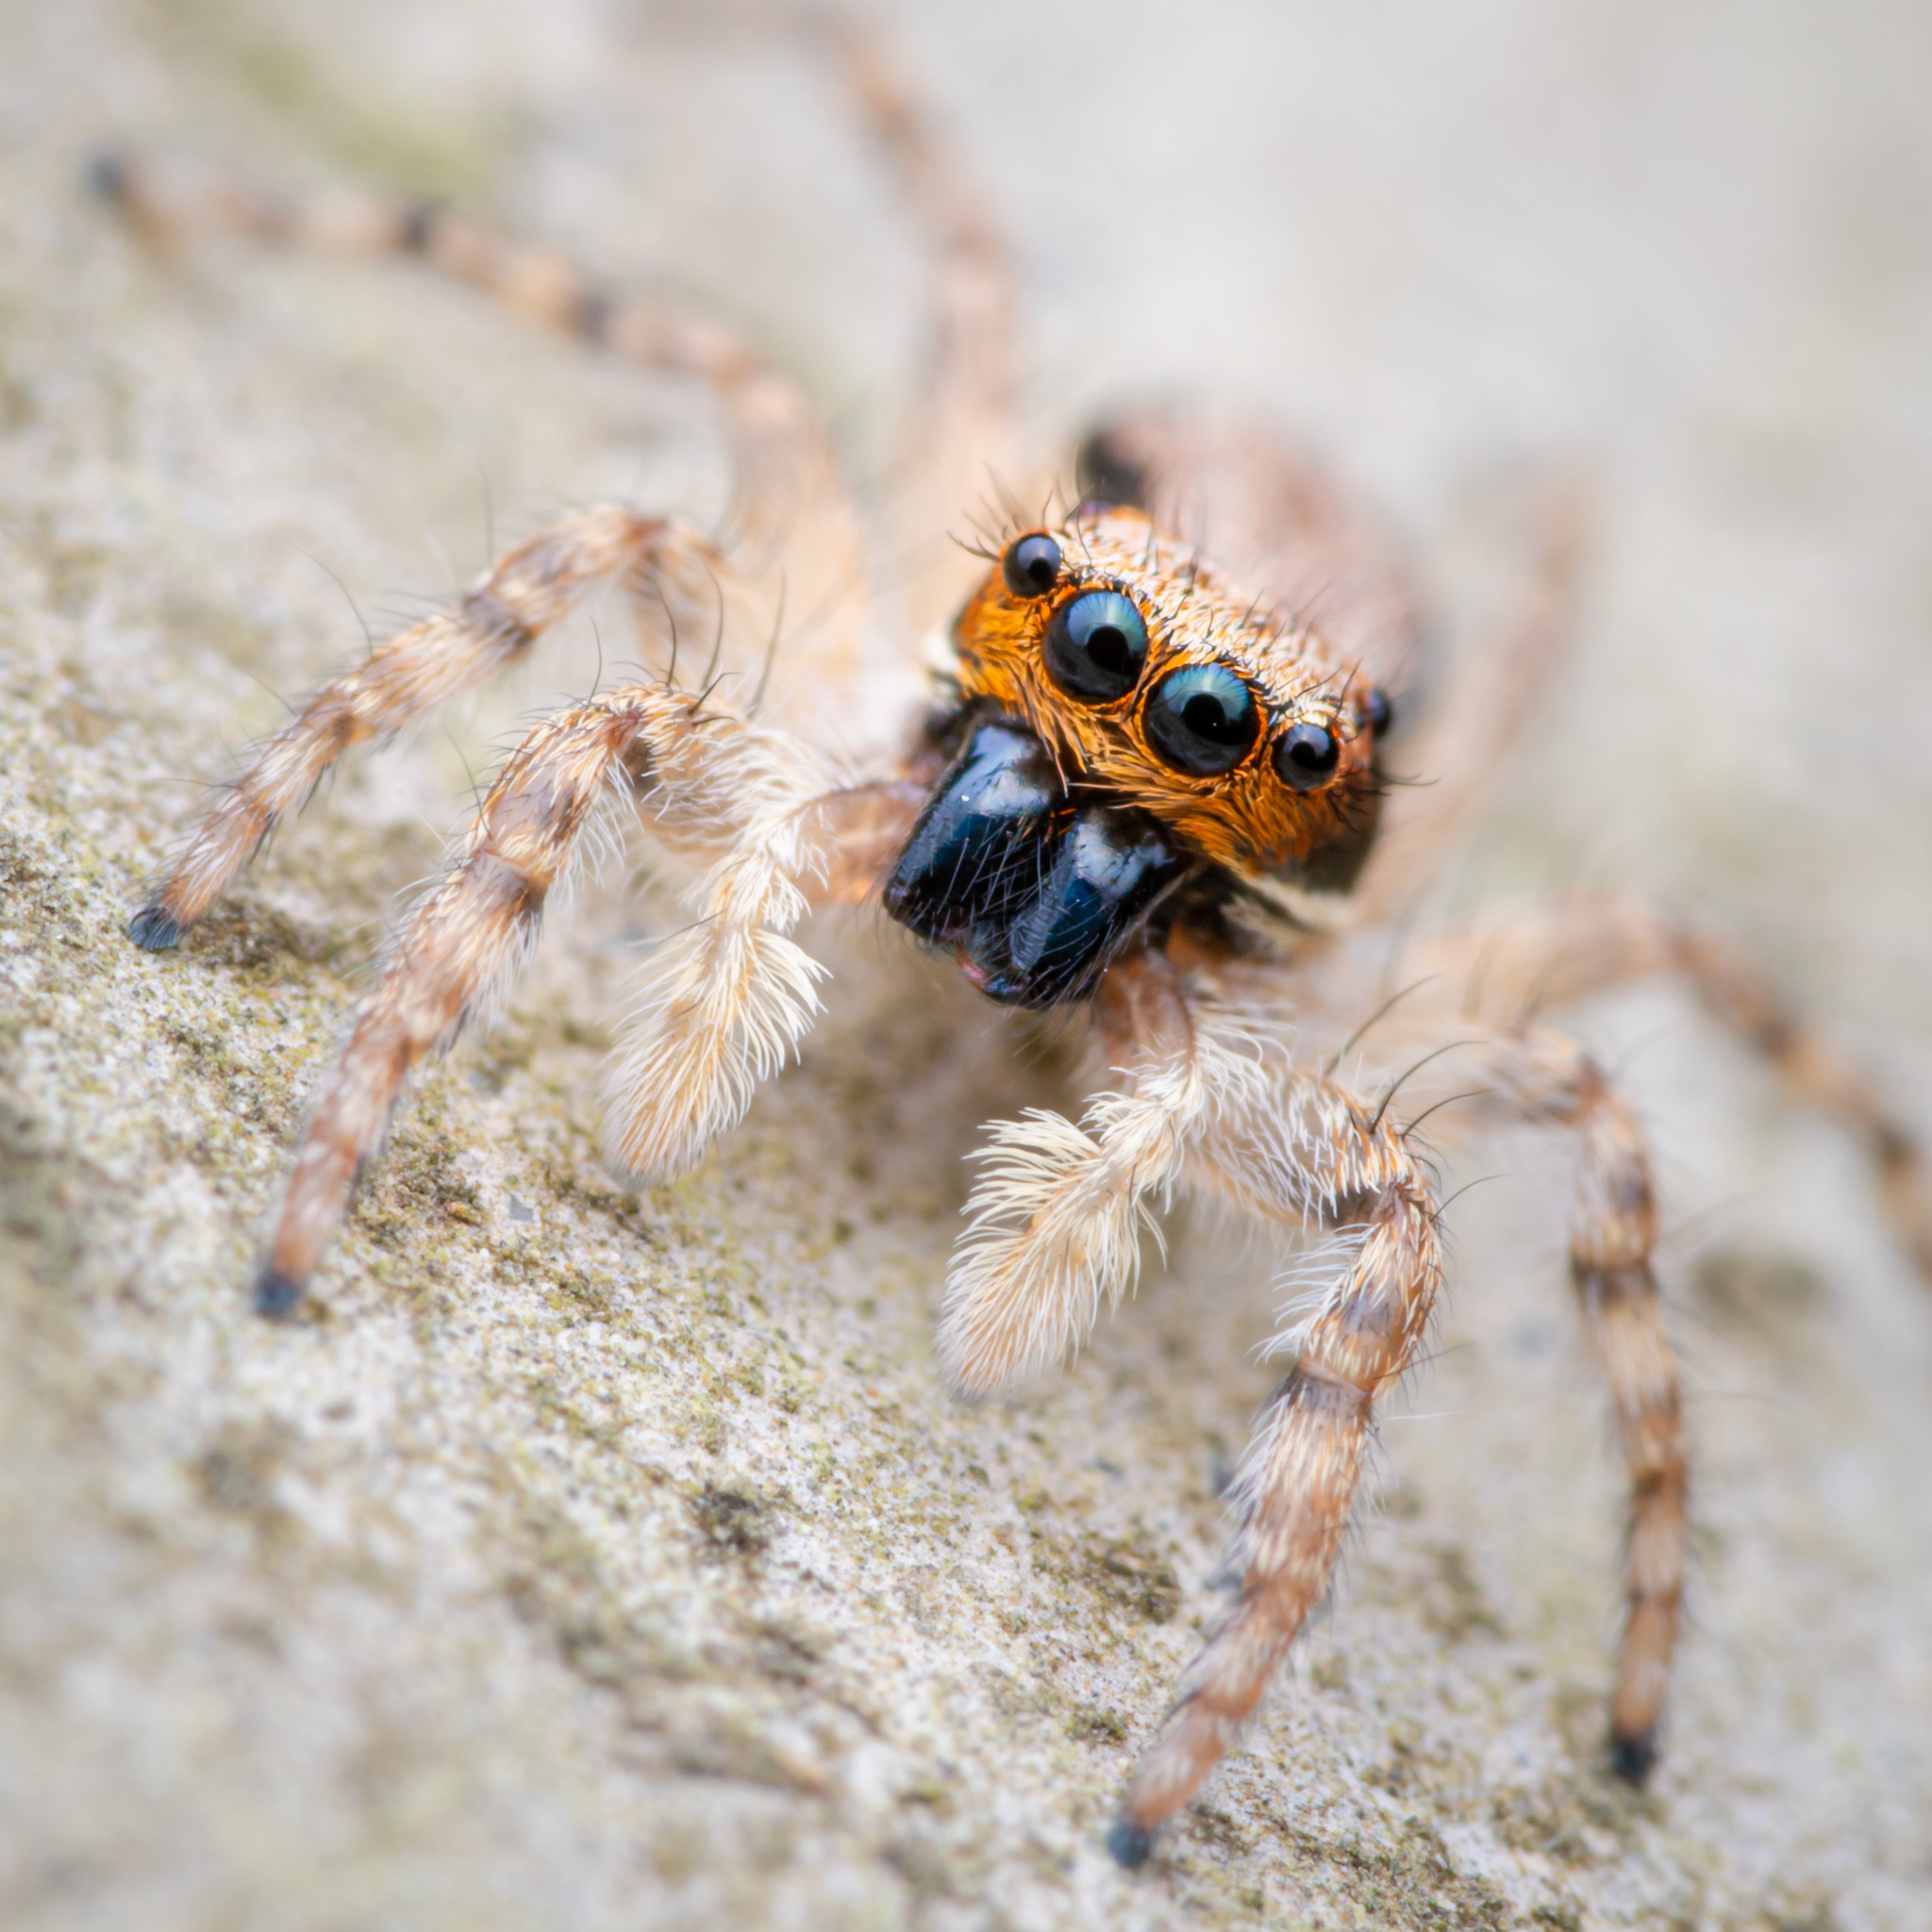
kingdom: Animalia
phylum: Arthropoda
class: Arachnida
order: Araneae
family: Salticidae
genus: Menemerus
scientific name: Menemerus bivittatus
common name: Gray wall jumper
